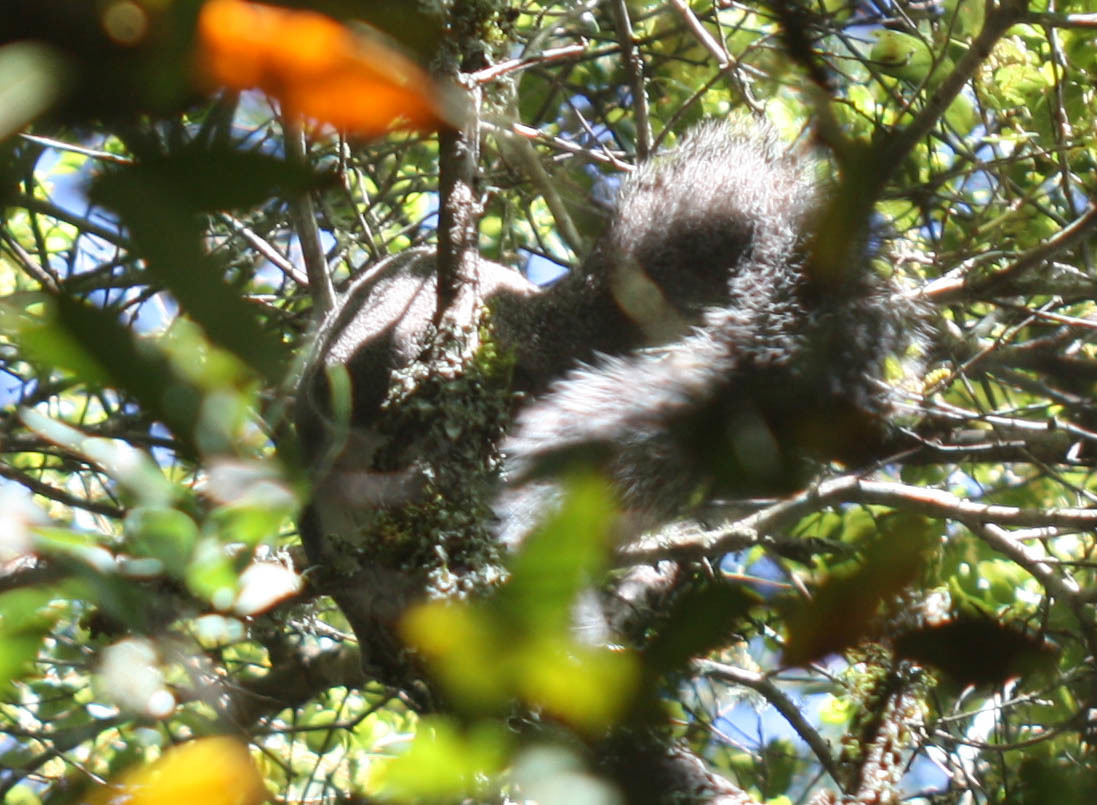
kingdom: Animalia
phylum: Chordata
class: Mammalia
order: Rodentia
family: Sciuridae
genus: Sciurus
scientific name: Sciurus griseus
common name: Western gray squirrel
